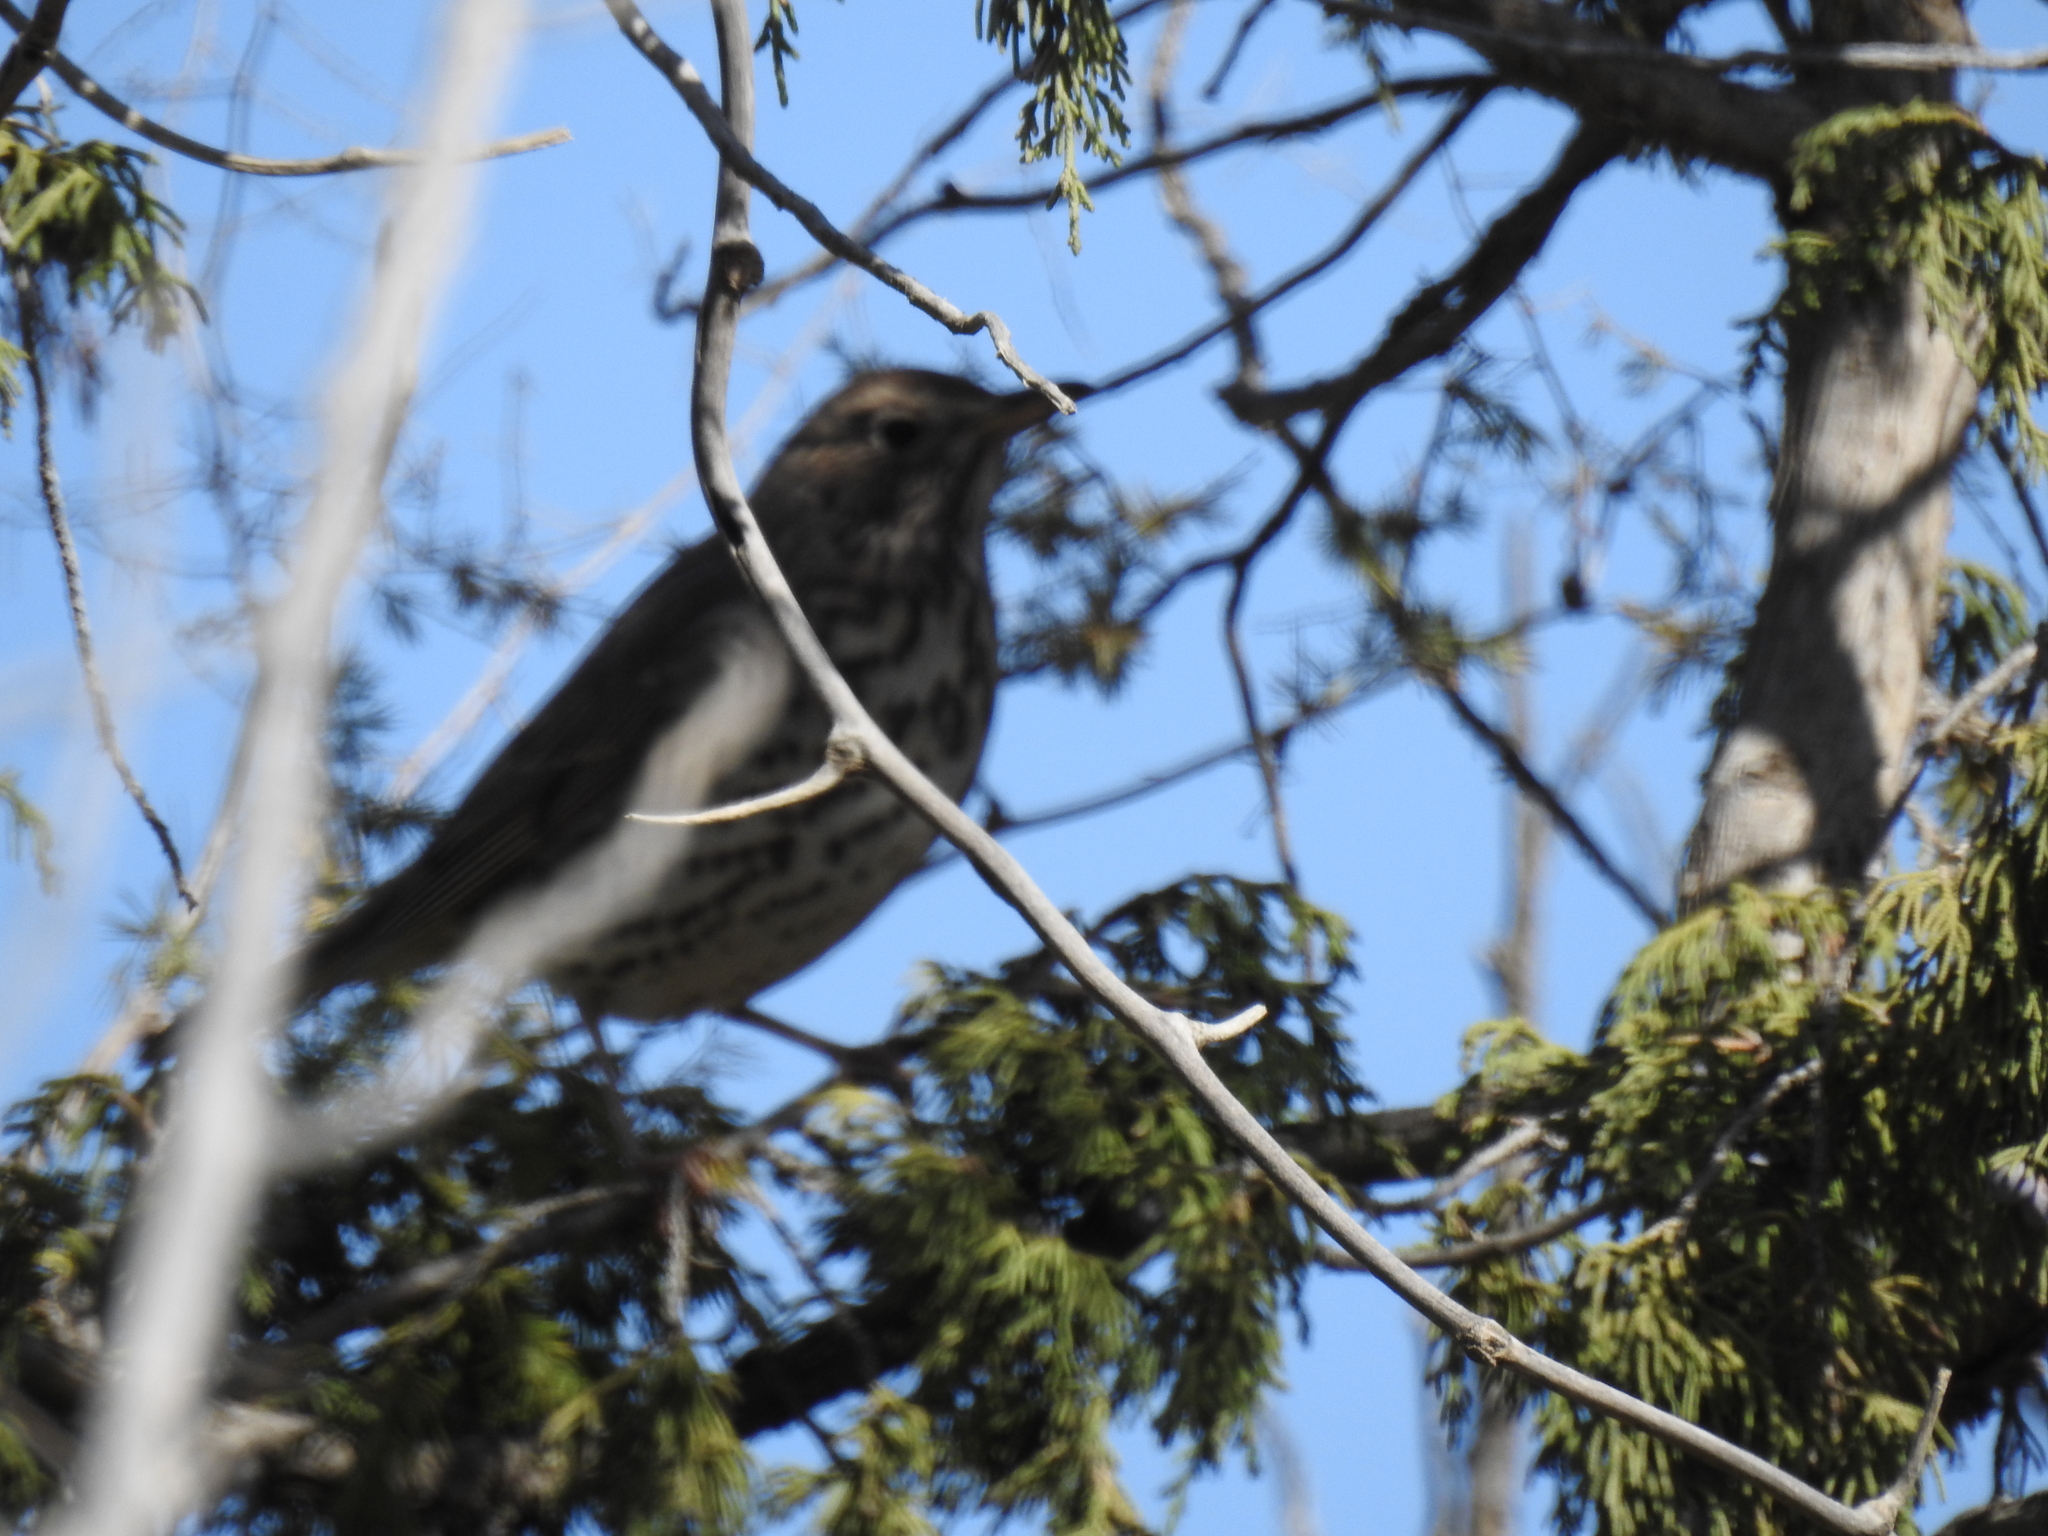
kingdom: Animalia
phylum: Chordata
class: Aves
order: Passeriformes
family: Turdidae
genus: Turdus
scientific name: Turdus philomelos
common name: Song thrush
